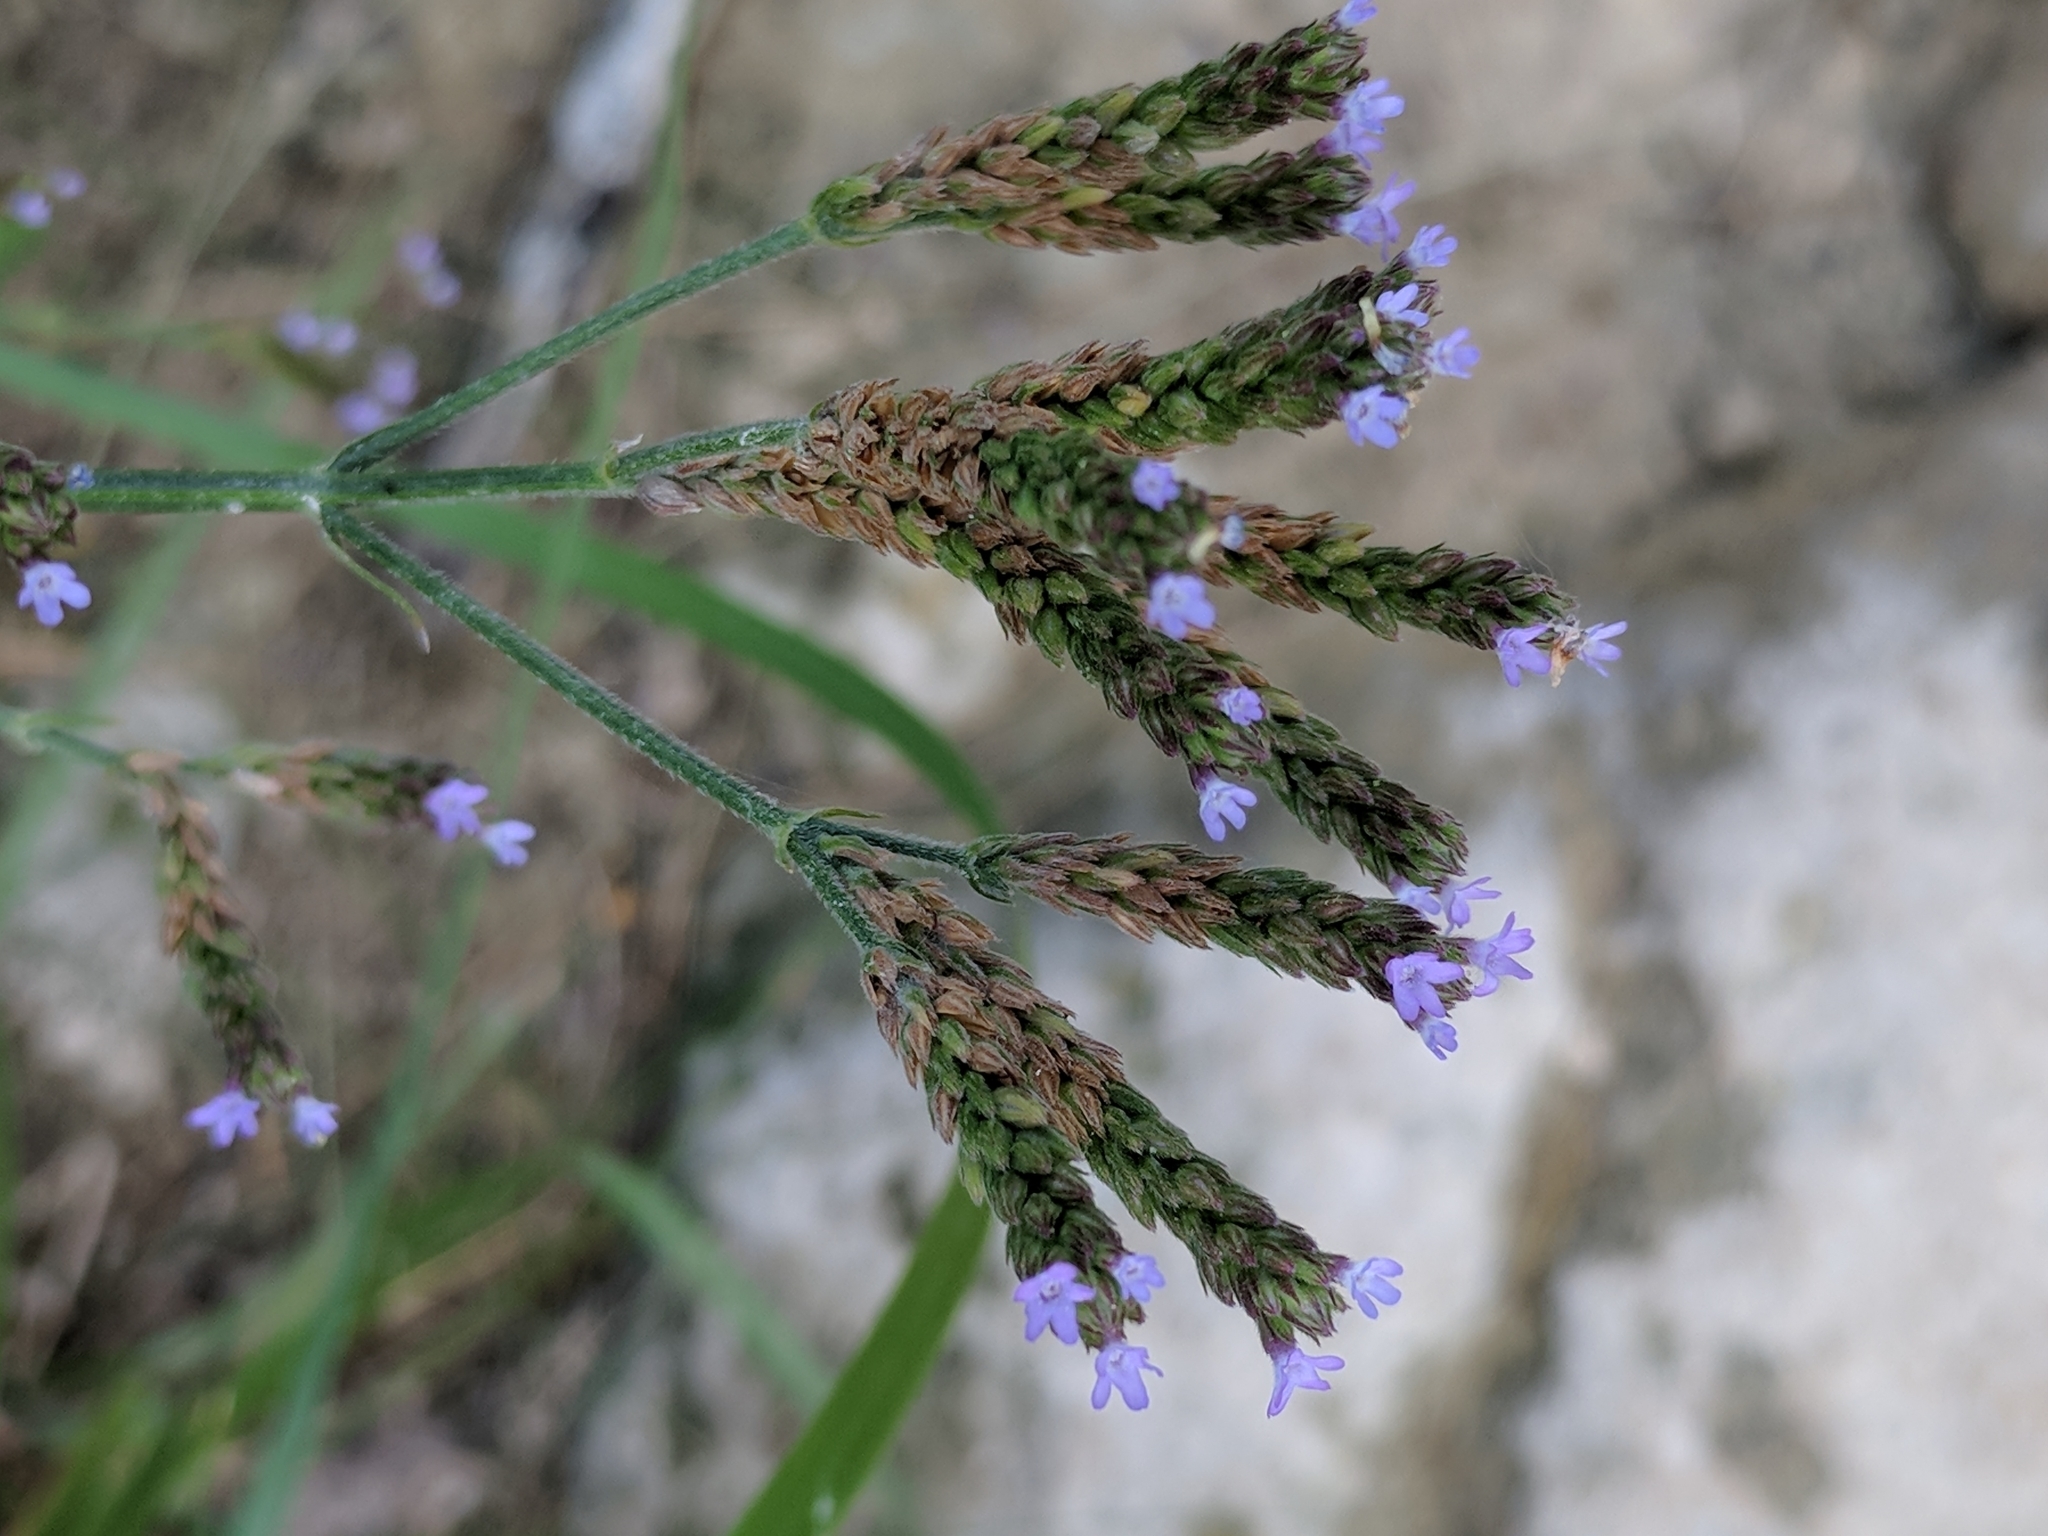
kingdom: Plantae
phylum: Tracheophyta
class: Magnoliopsida
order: Lamiales
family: Verbenaceae
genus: Verbena
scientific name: Verbena brasiliensis
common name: Brazilian vervain
